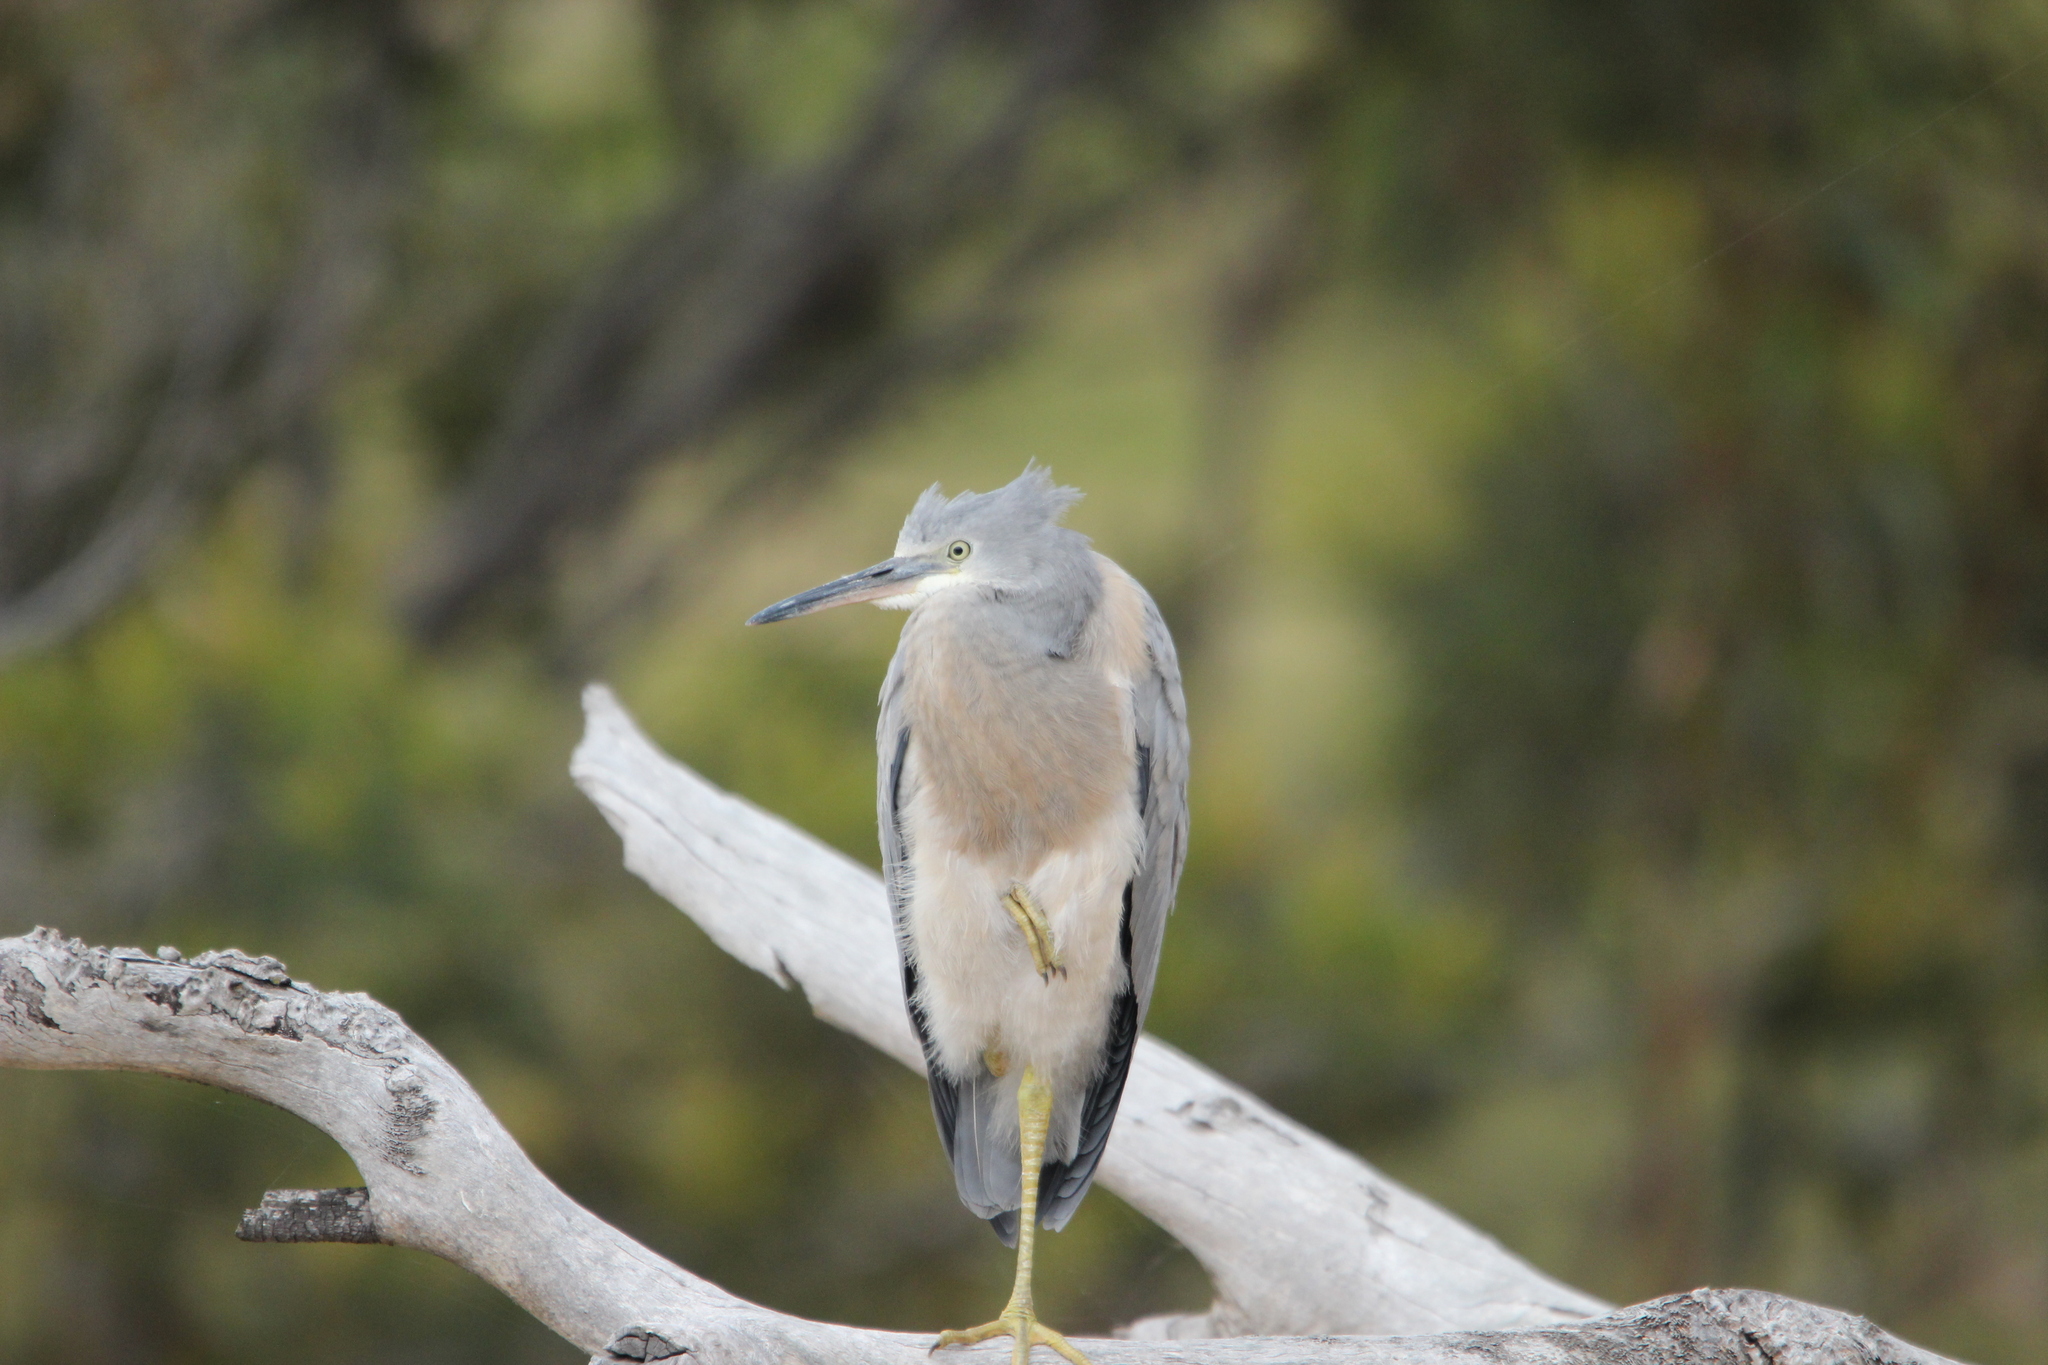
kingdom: Animalia
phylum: Chordata
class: Aves
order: Pelecaniformes
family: Ardeidae
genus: Egretta
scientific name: Egretta novaehollandiae
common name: White-faced heron
